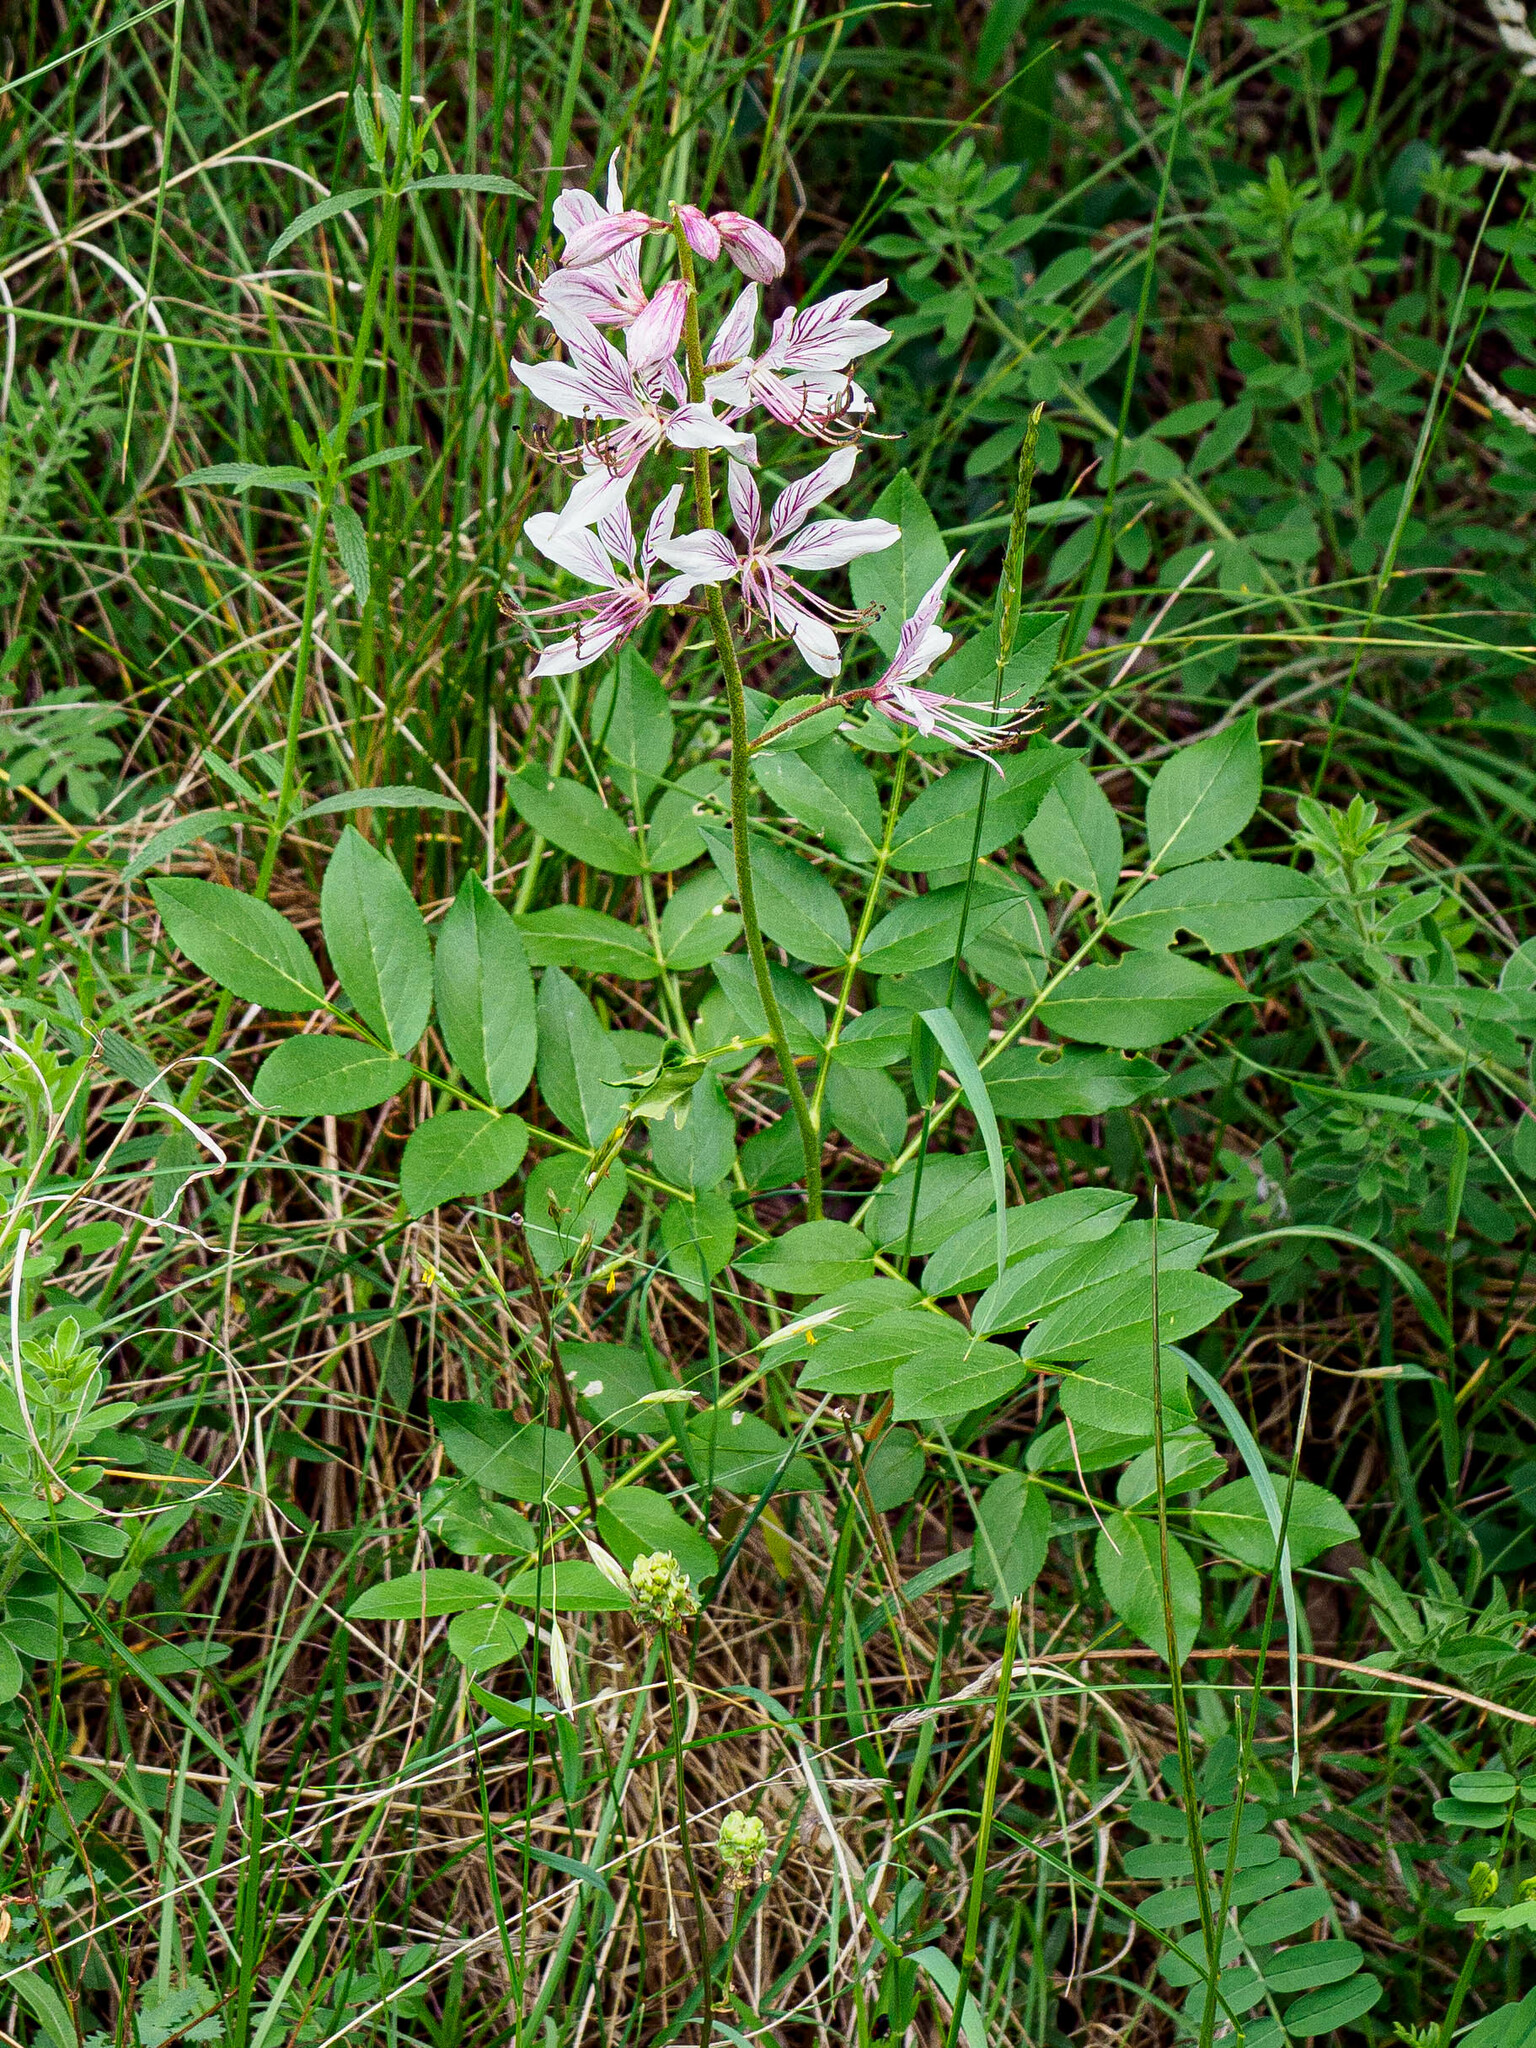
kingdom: Plantae
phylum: Tracheophyta
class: Magnoliopsida
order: Sapindales
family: Rutaceae
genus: Dictamnus
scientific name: Dictamnus albus
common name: Gasplant
